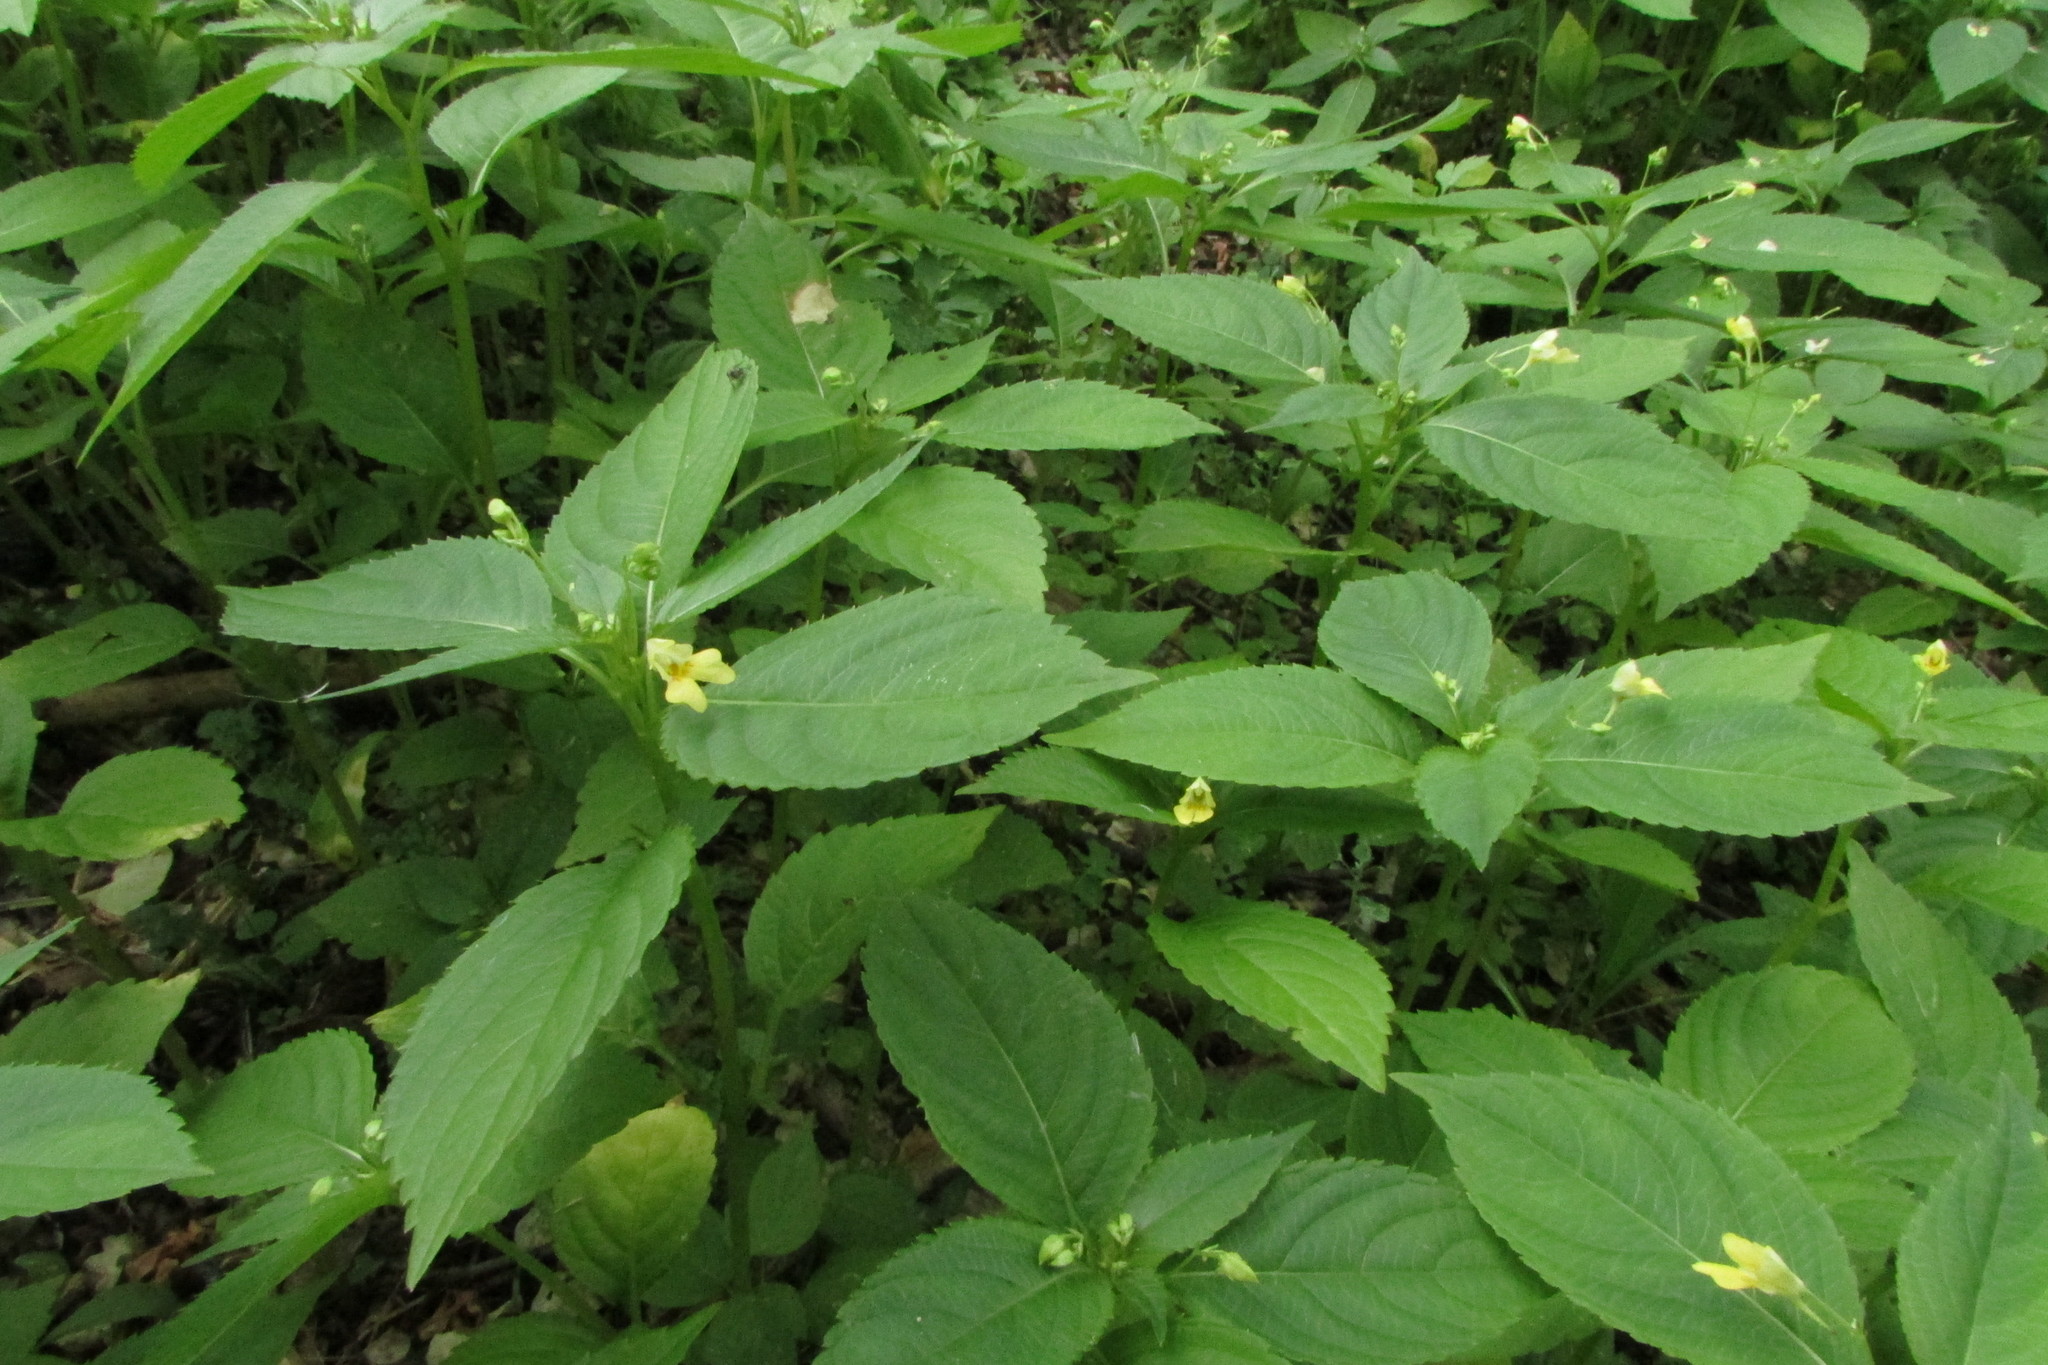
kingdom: Plantae
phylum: Tracheophyta
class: Magnoliopsida
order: Ericales
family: Balsaminaceae
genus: Impatiens
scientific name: Impatiens parviflora
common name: Small balsam
